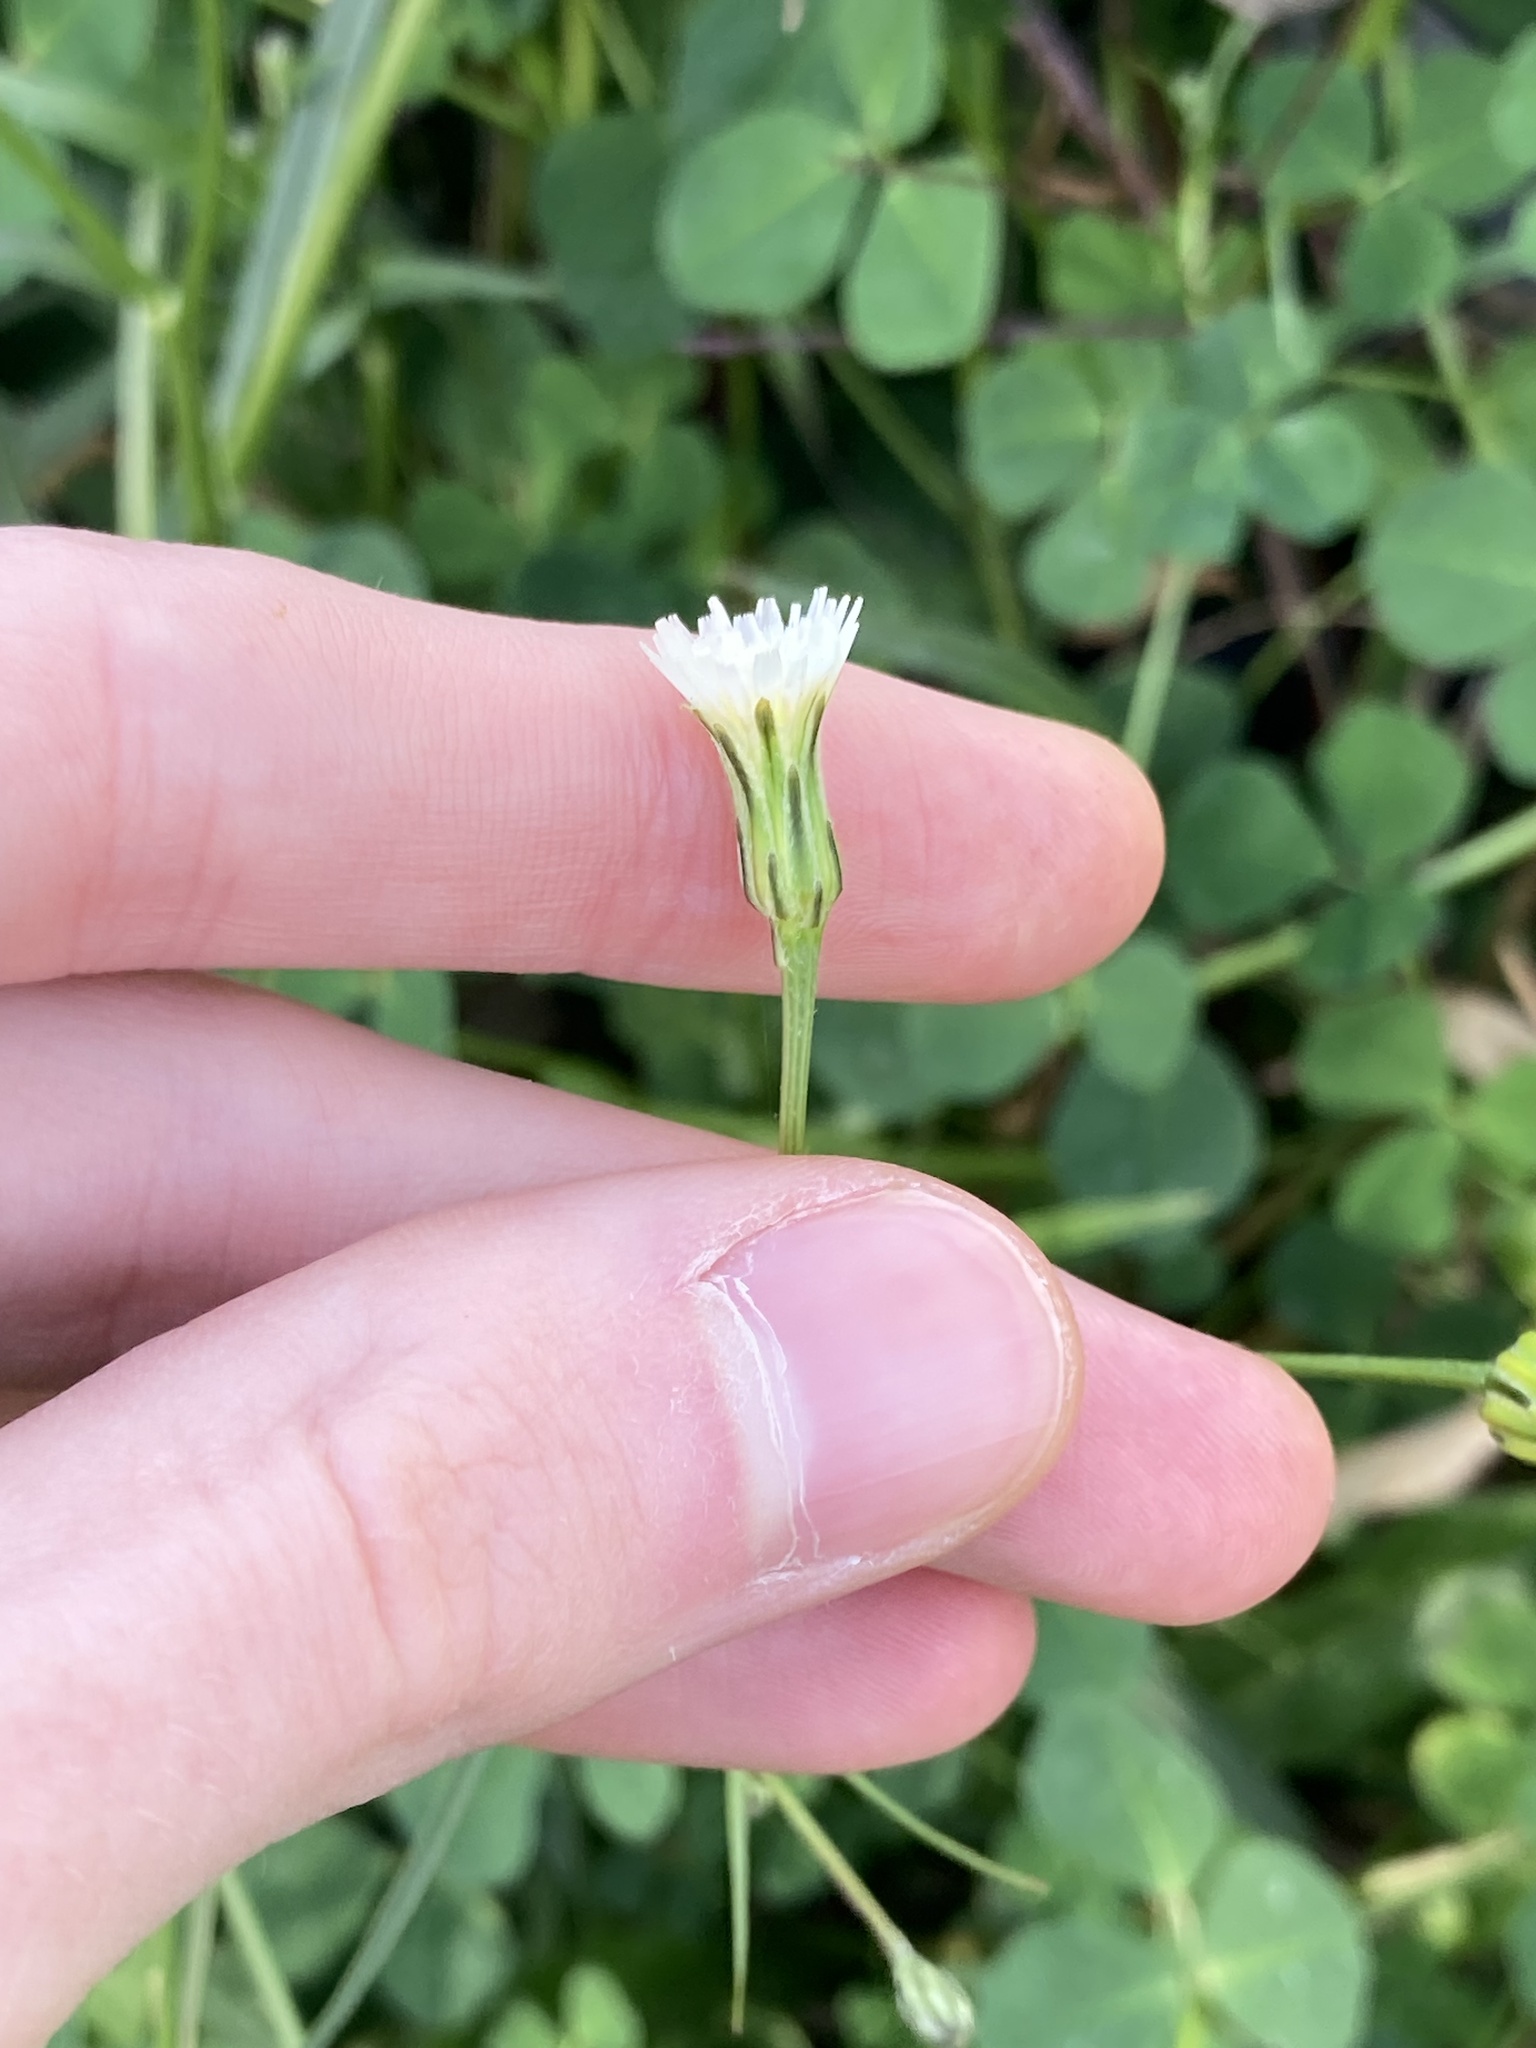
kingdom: Plantae
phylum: Tracheophyta
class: Magnoliopsida
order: Asterales
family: Asteraceae
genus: Hypochaeris
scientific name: Hypochaeris albiflora
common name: White flatweed
